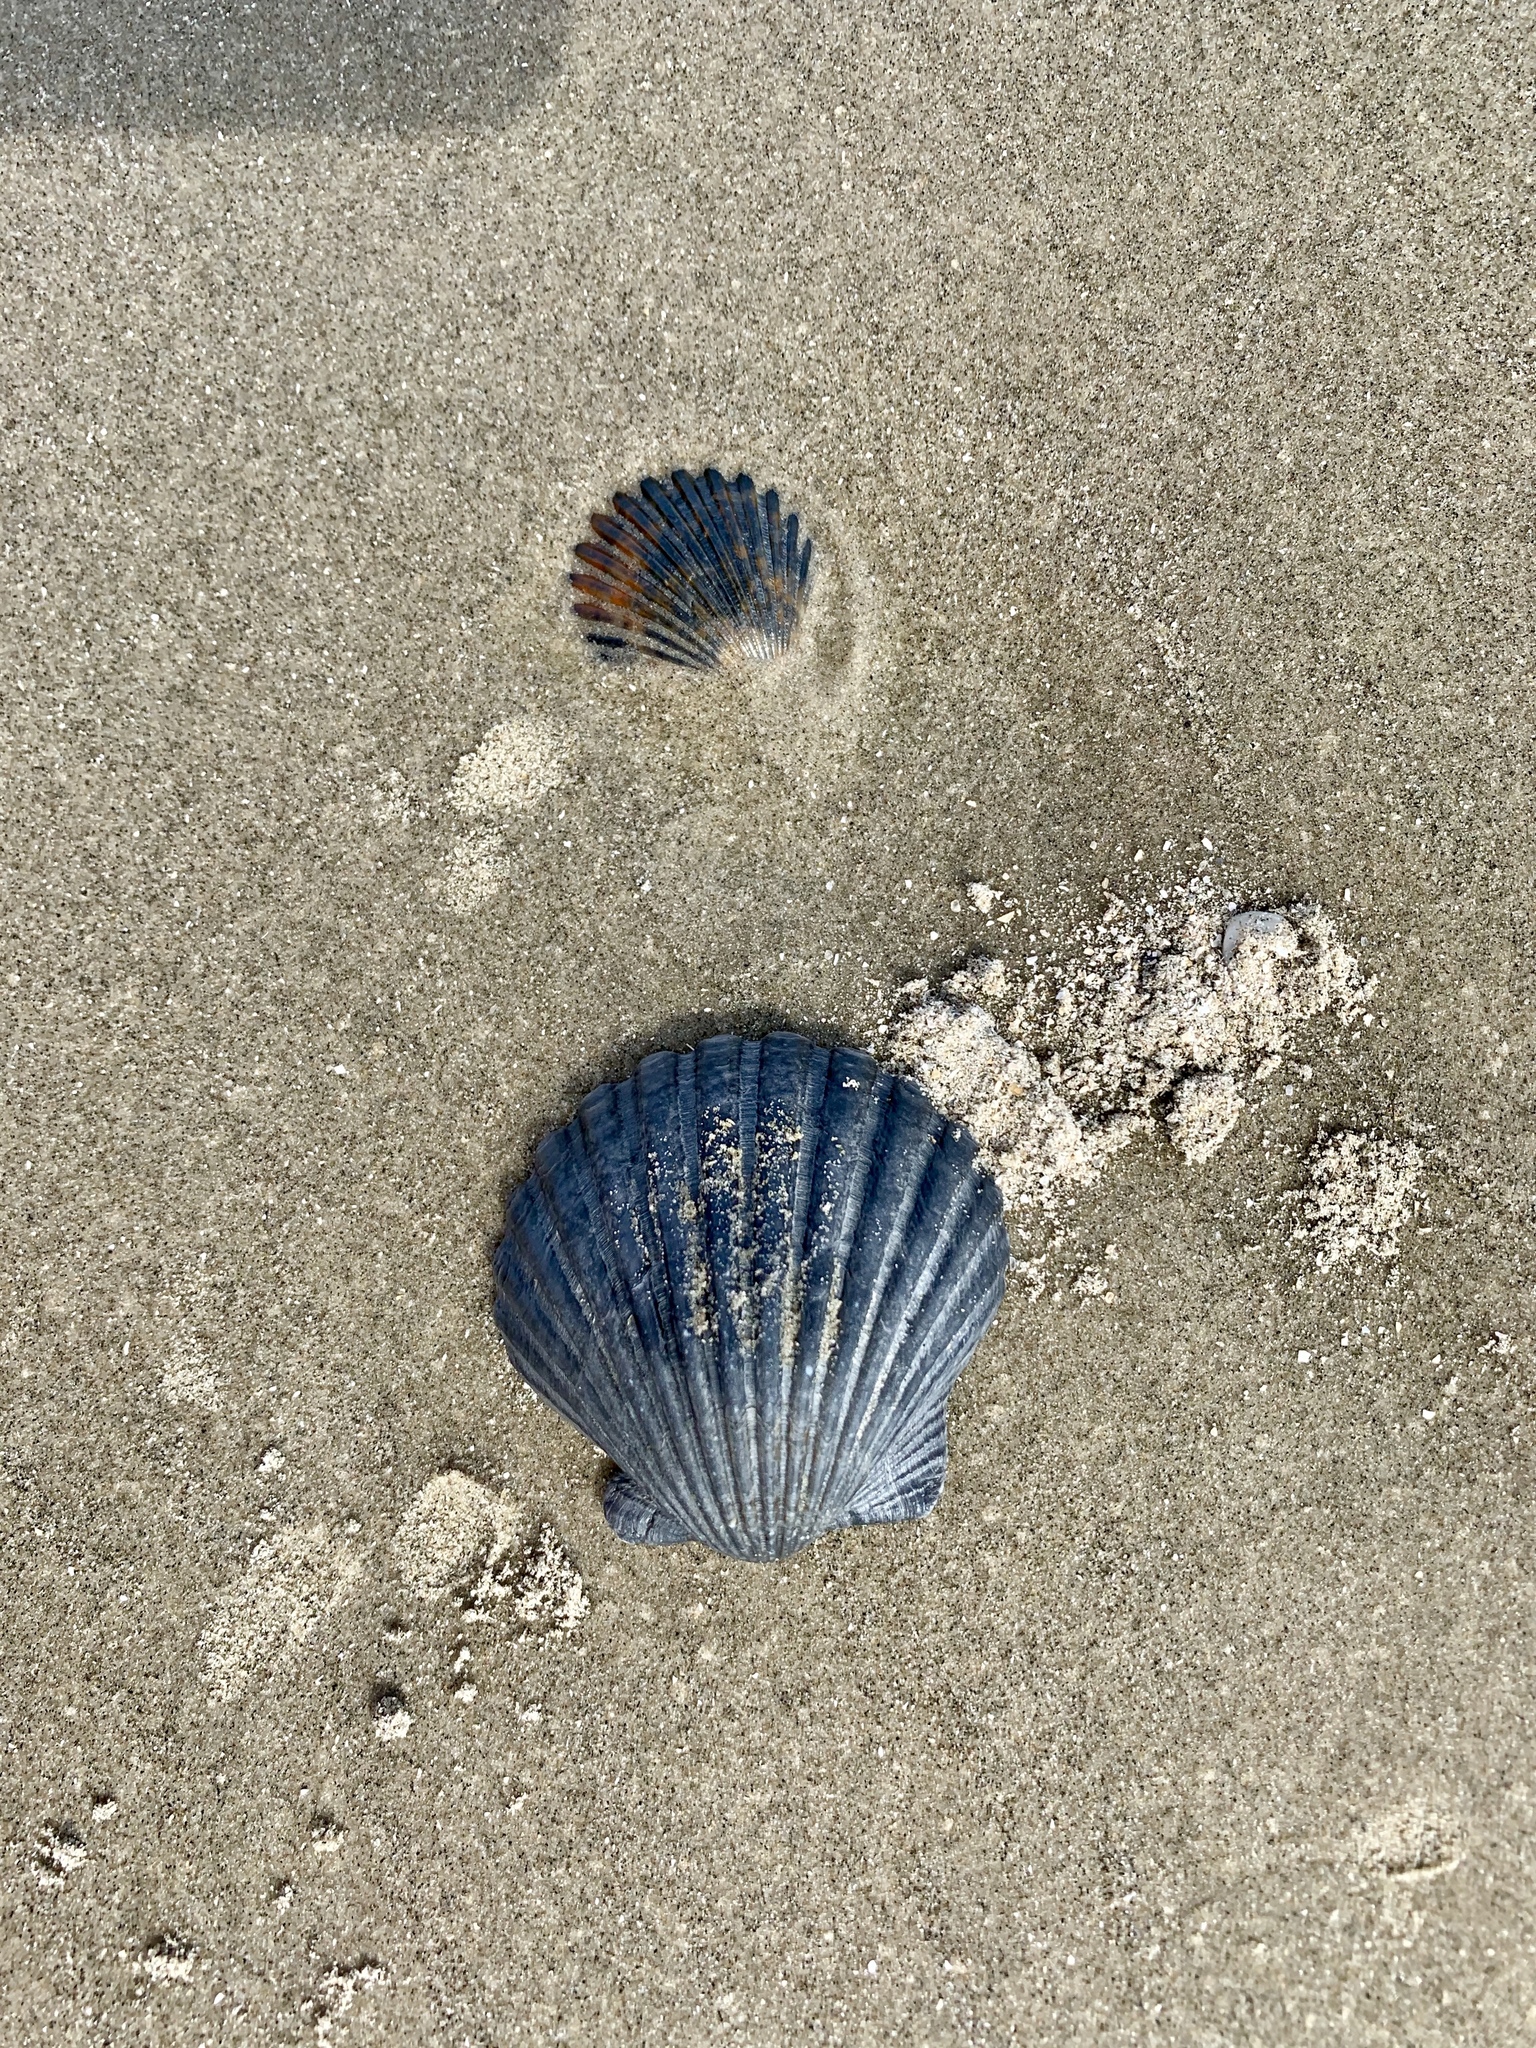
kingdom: Animalia
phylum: Mollusca
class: Bivalvia
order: Pectinida
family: Pectinidae
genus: Argopecten
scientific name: Argopecten irradians
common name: Atlantic bay scallop
